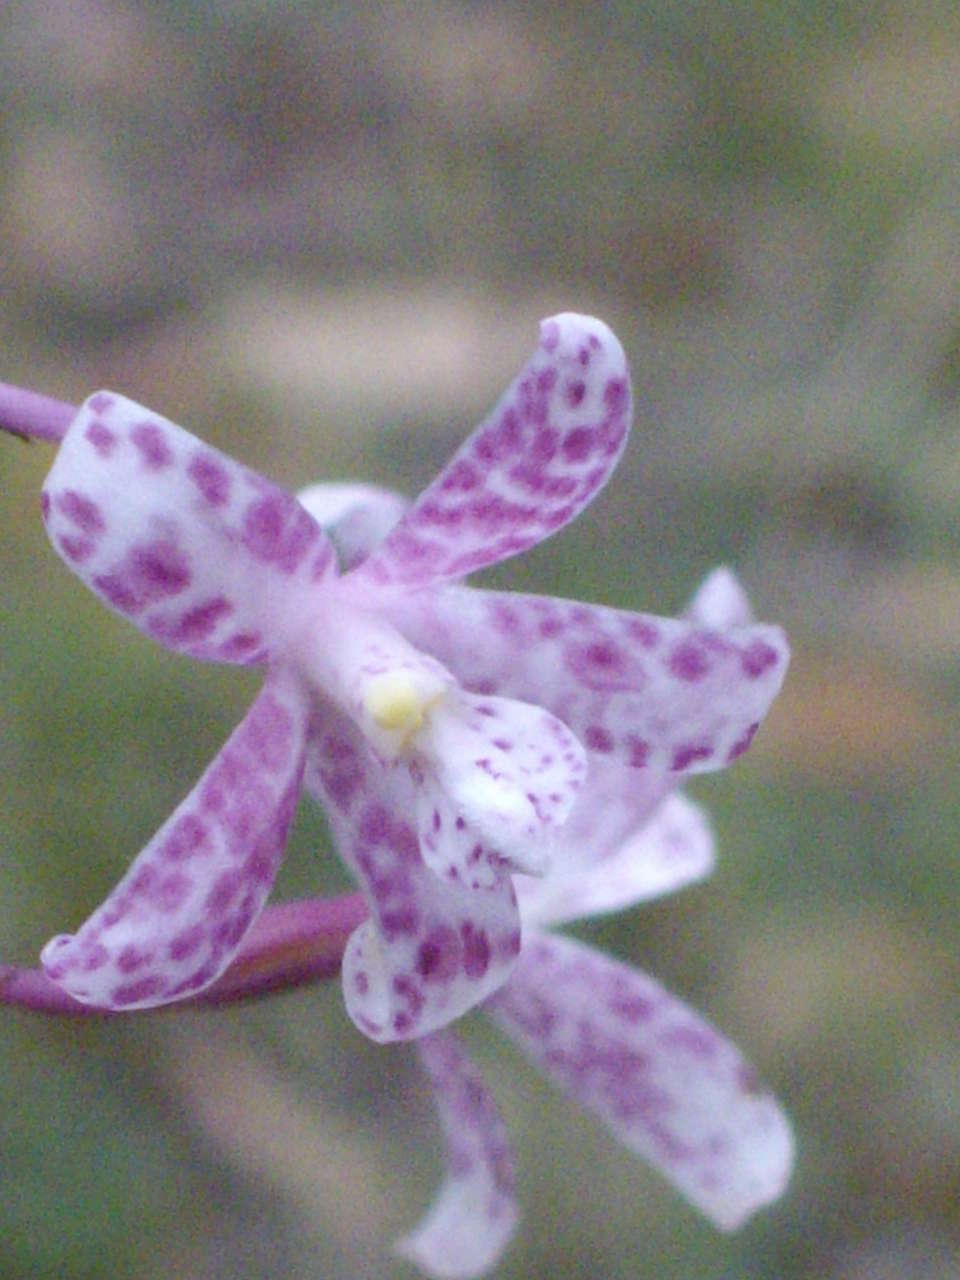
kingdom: Plantae
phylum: Tracheophyta
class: Liliopsida
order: Asparagales
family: Orchidaceae
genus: Dipodium
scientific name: Dipodium pardalinum
